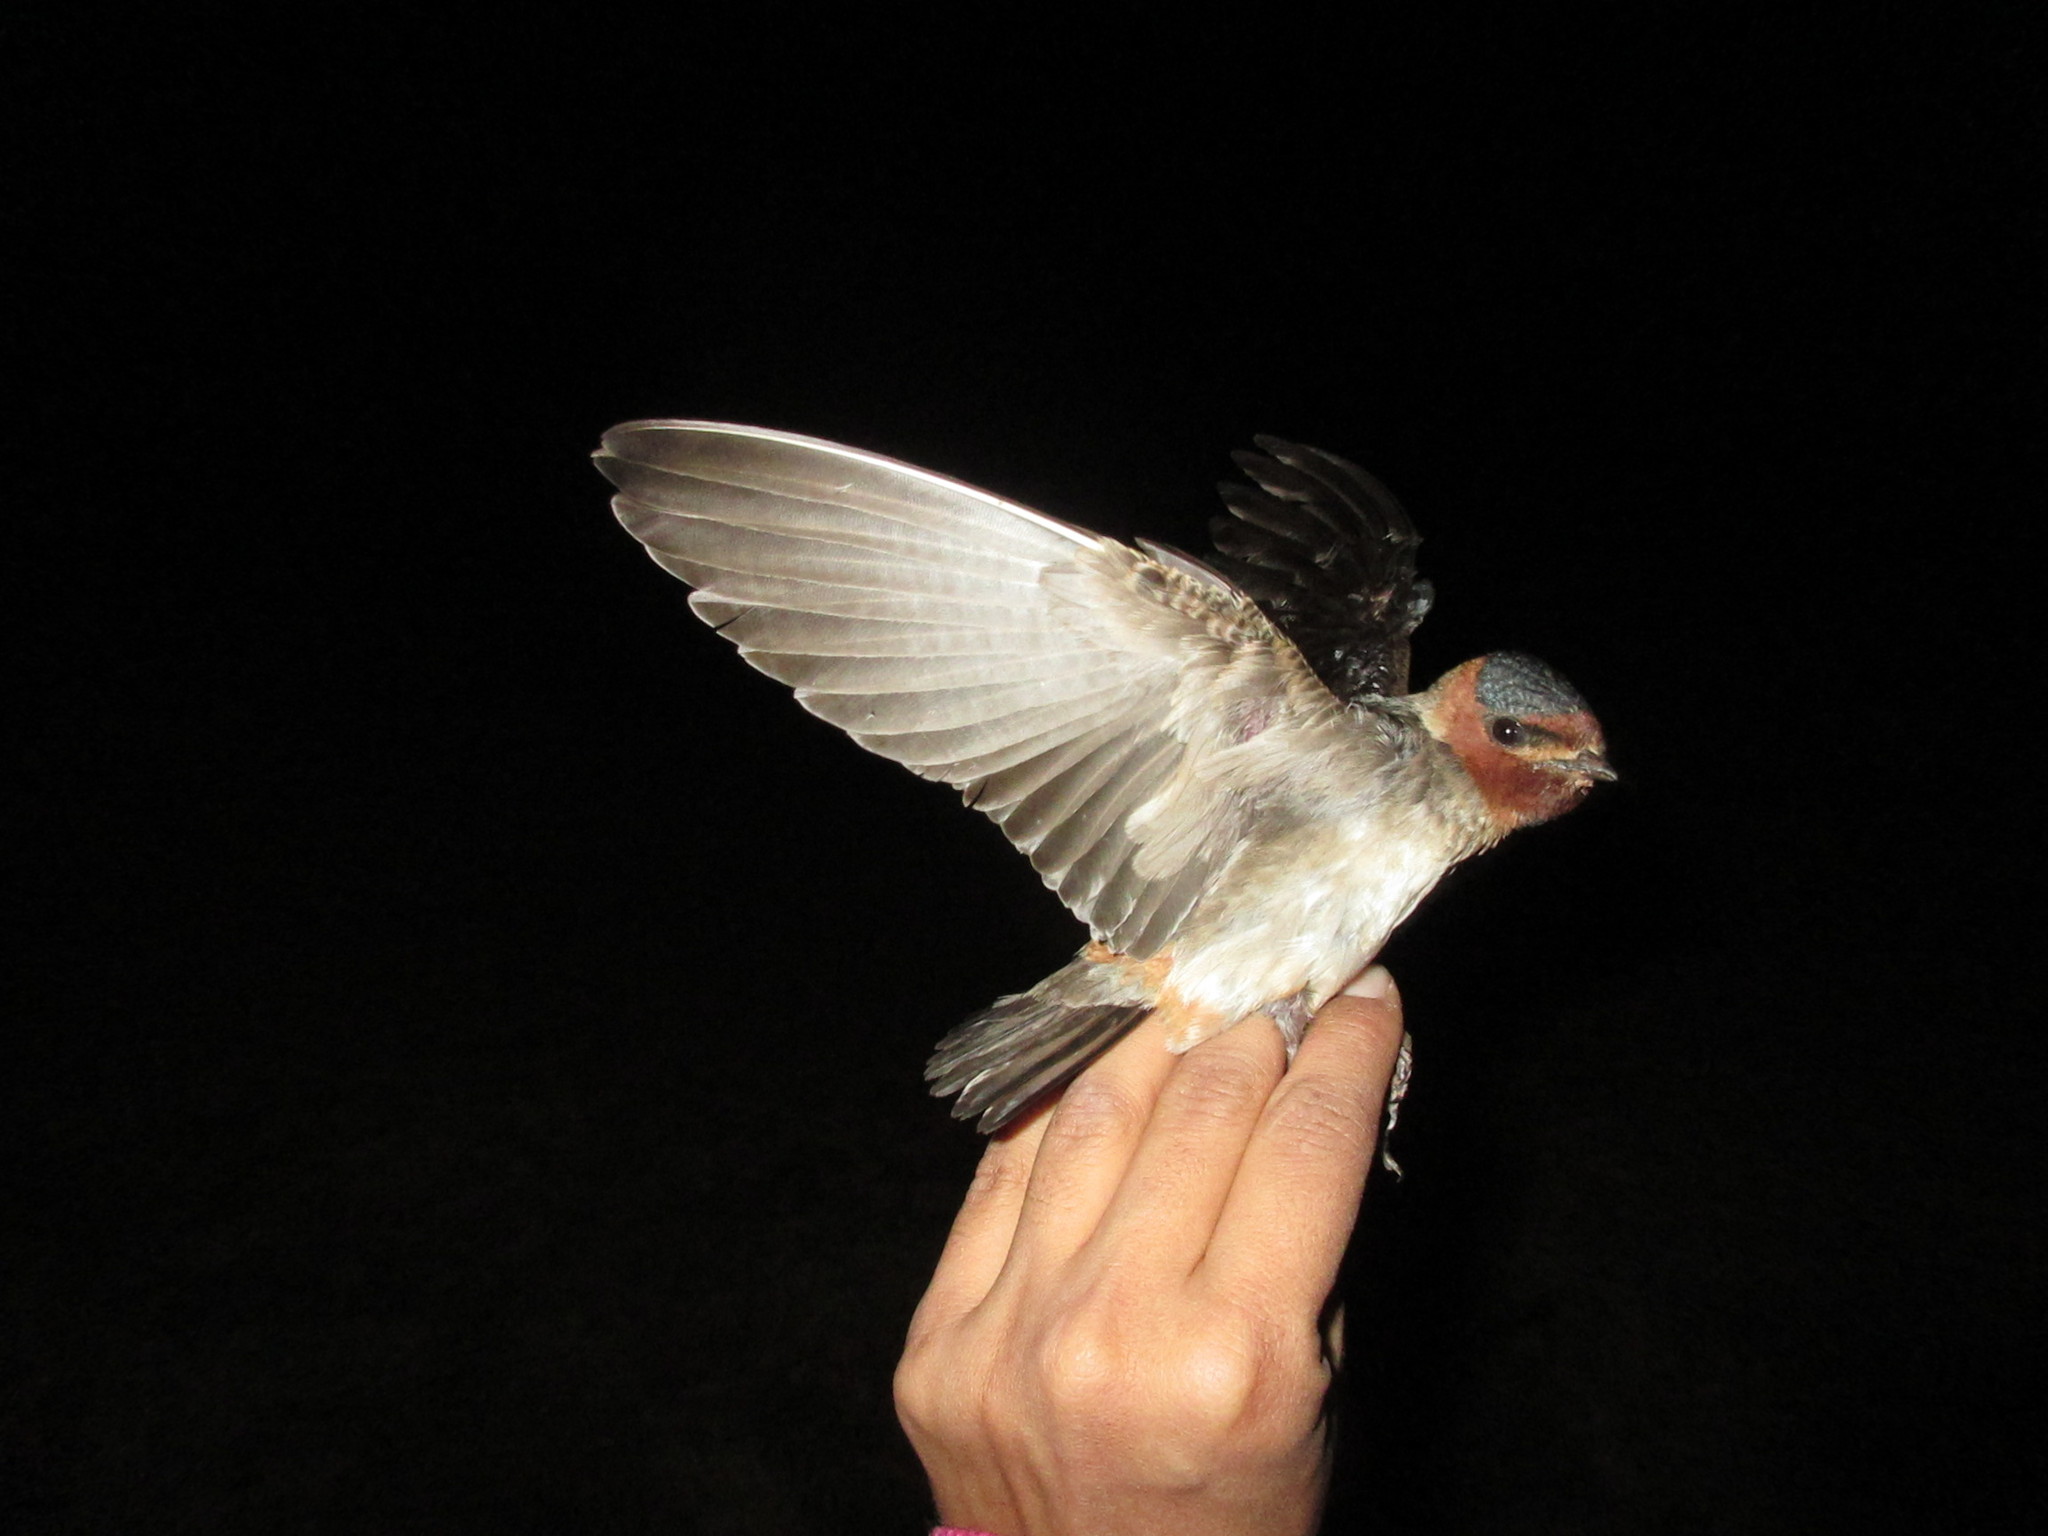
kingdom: Animalia
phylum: Chordata
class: Aves
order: Passeriformes
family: Hirundinidae
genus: Petrochelidon
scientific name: Petrochelidon pyrrhonota
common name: American cliff swallow
